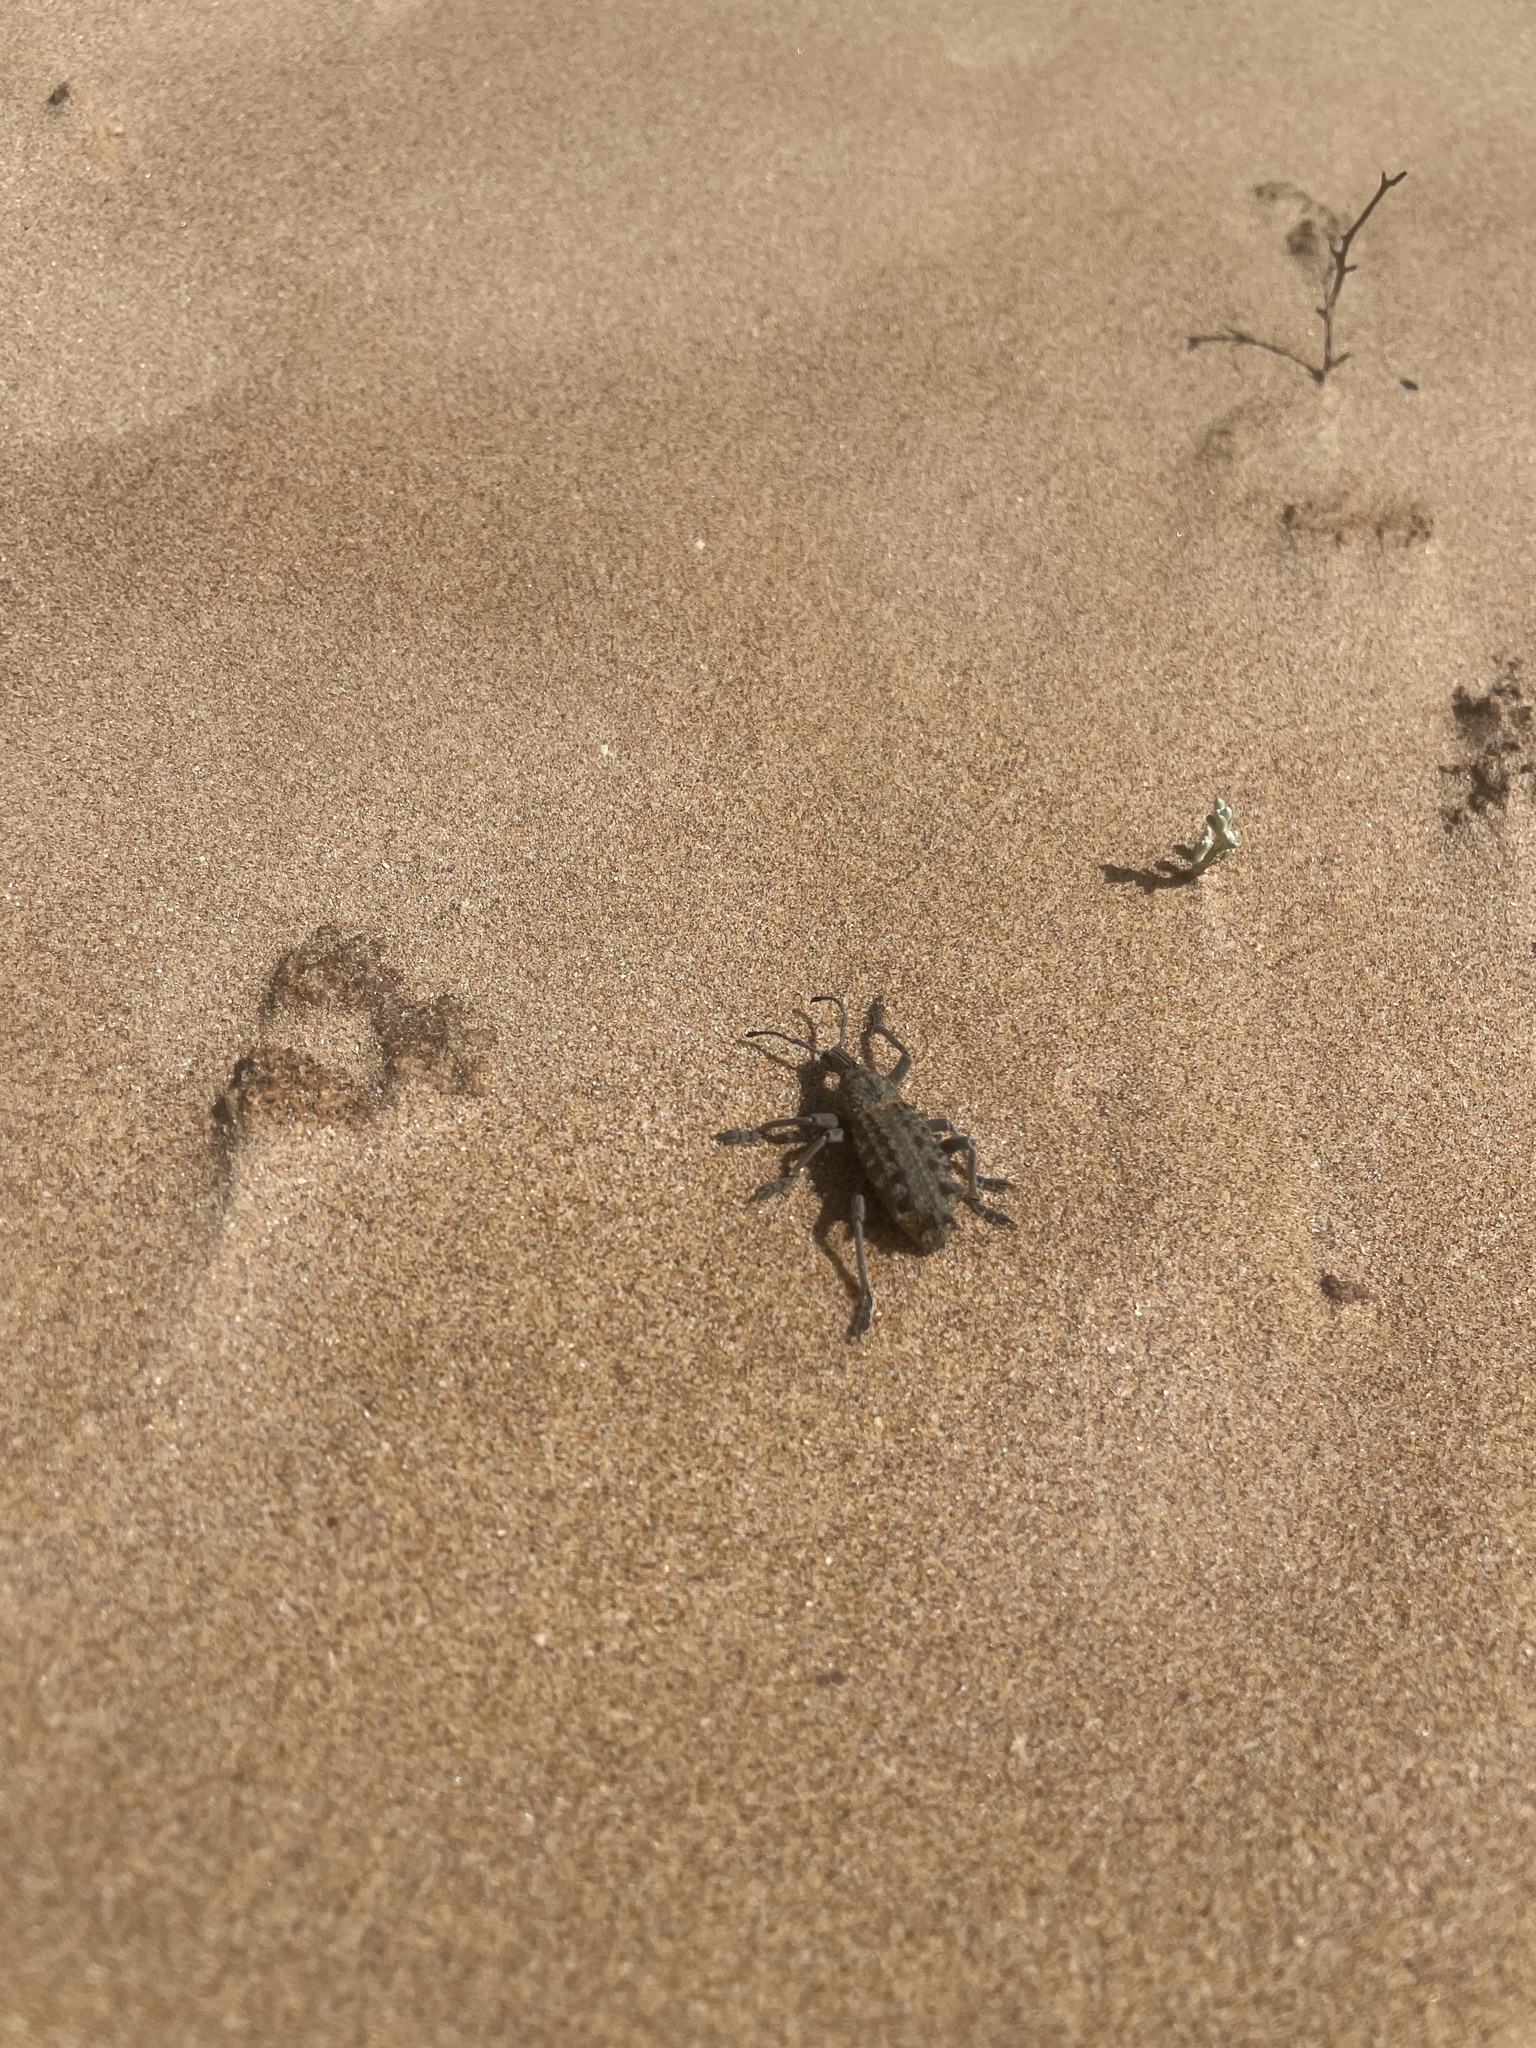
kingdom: Animalia
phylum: Arthropoda
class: Insecta
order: Coleoptera
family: Curculionidae
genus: Leptopius
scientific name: Leptopius duponti
